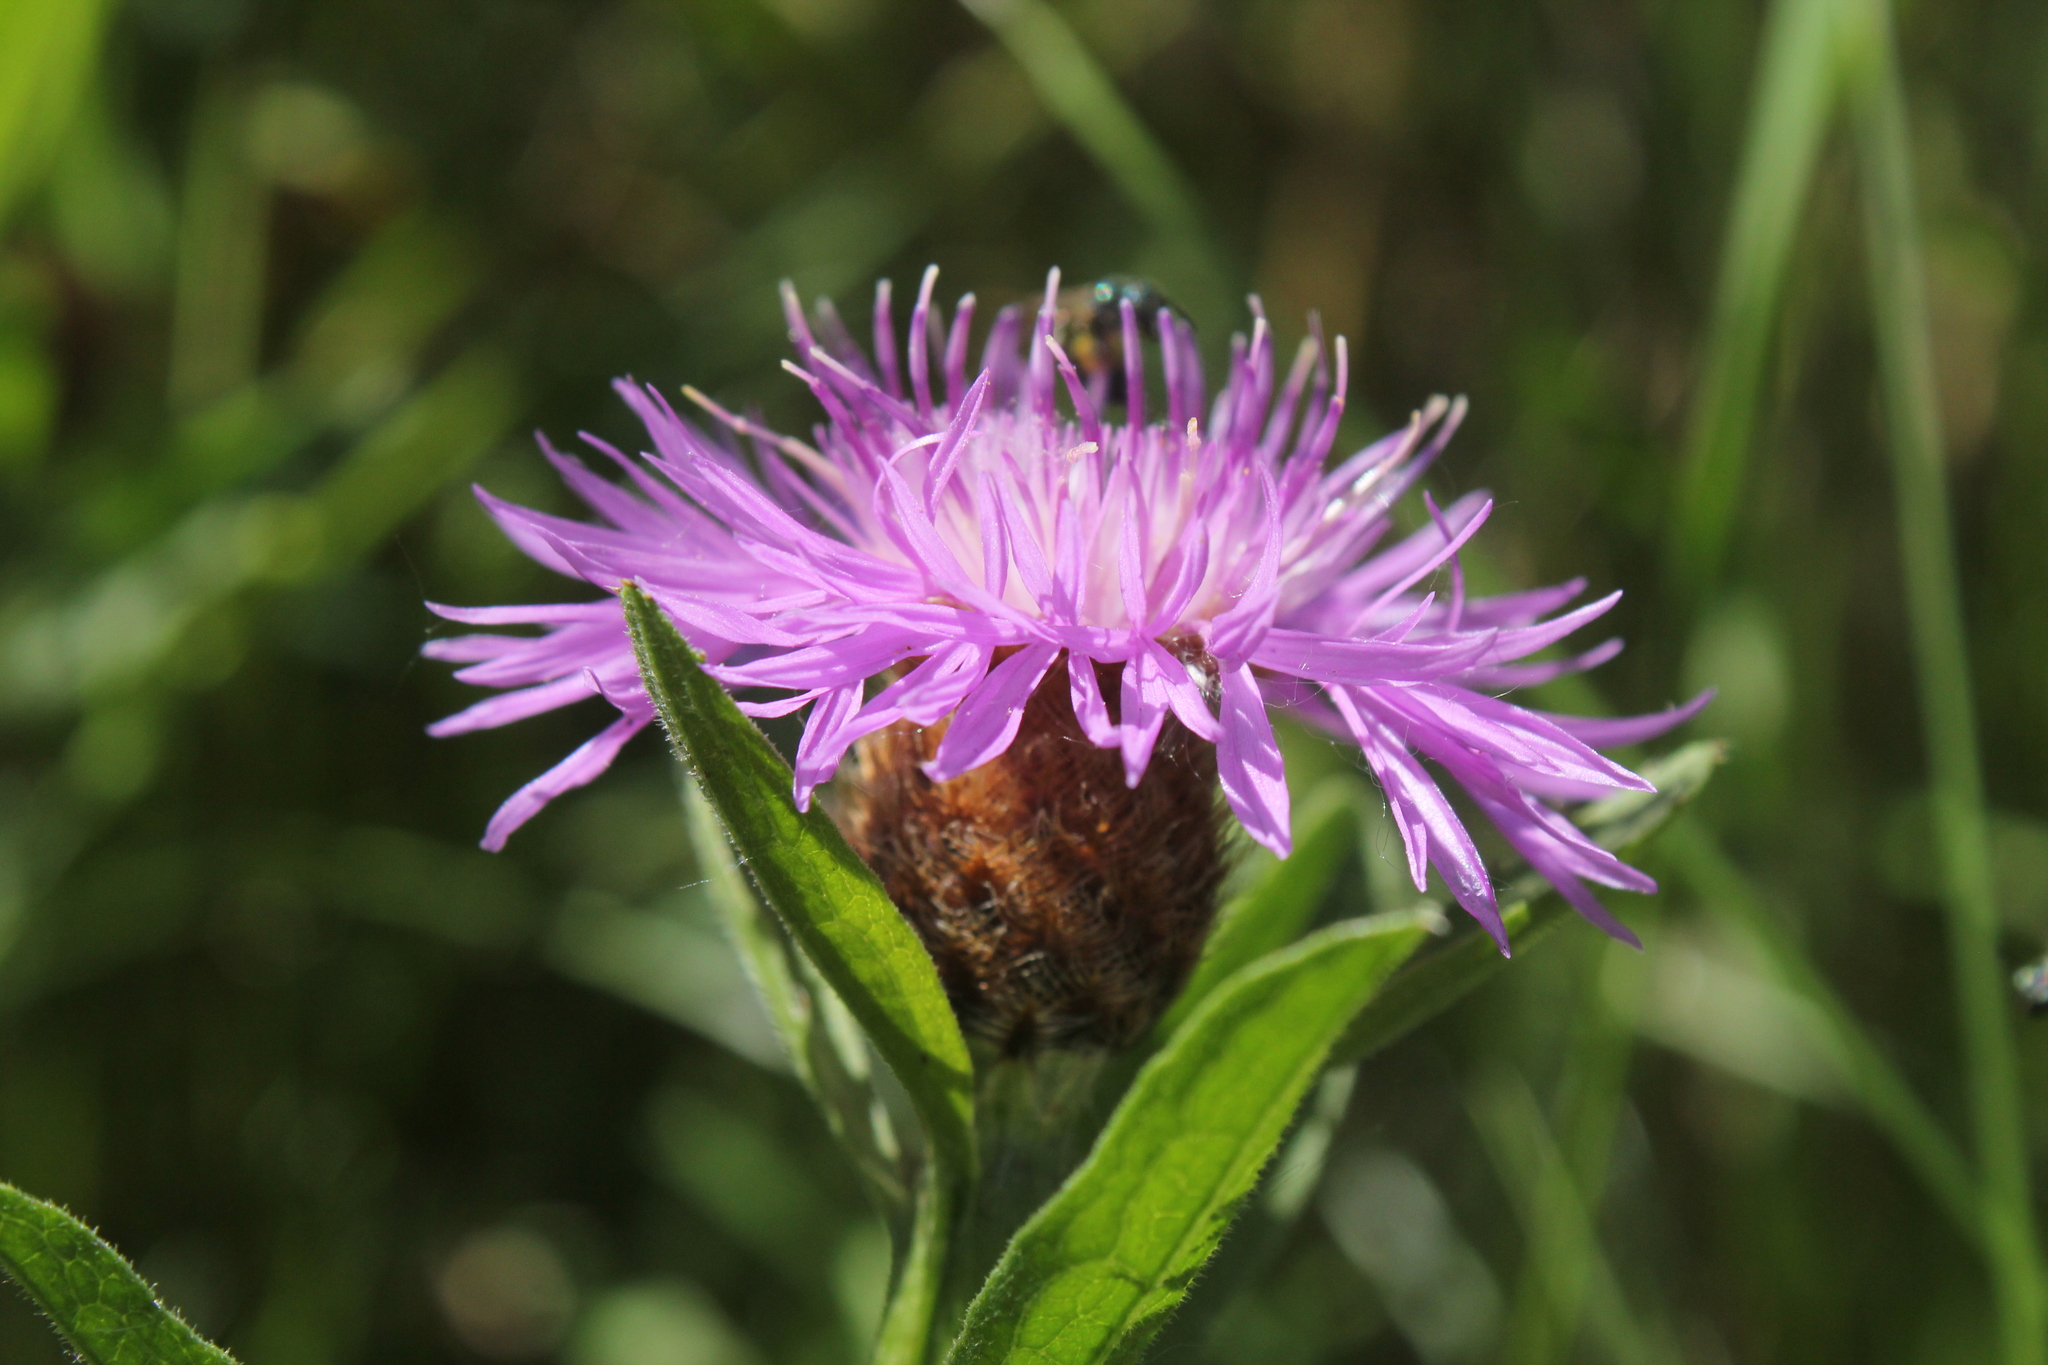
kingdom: Plantae
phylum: Tracheophyta
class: Magnoliopsida
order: Asterales
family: Asteraceae
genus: Centaurea
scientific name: Centaurea moncktonii
